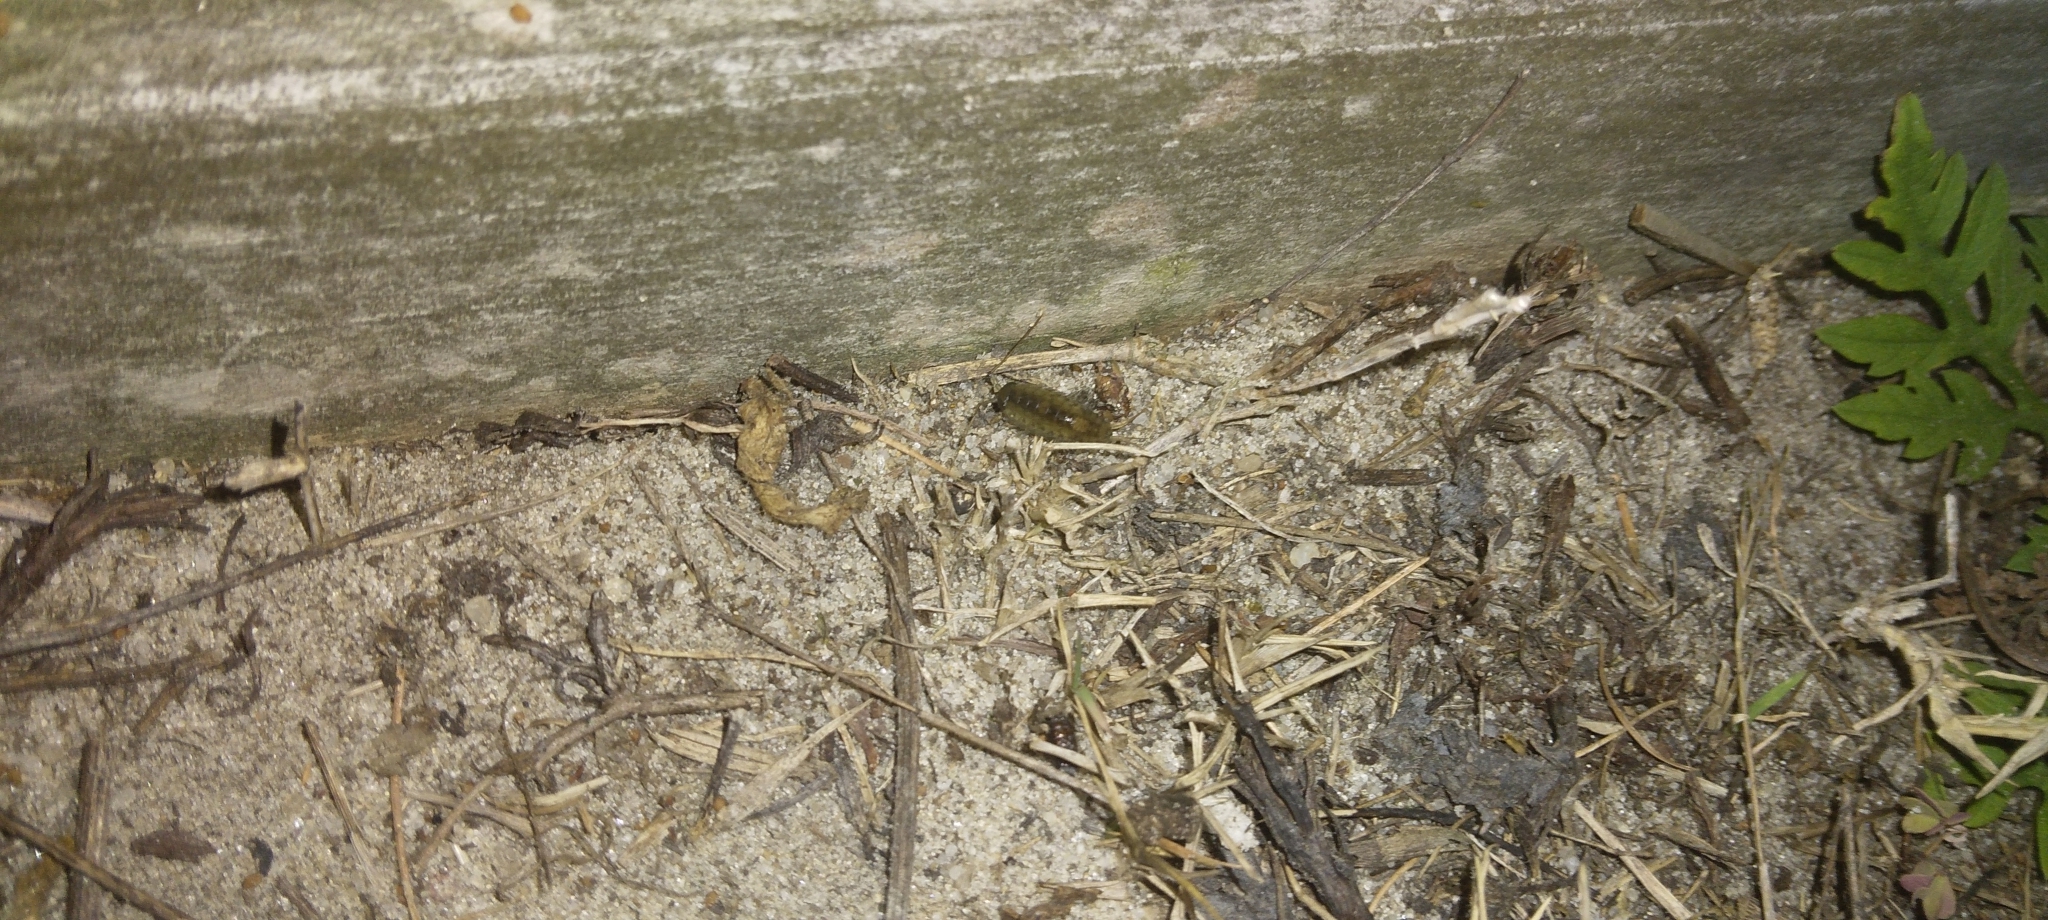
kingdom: Animalia
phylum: Arthropoda
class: Malacostraca
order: Isopoda
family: Ligiidae
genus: Ligia
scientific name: Ligia exotica
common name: Wharf roach
